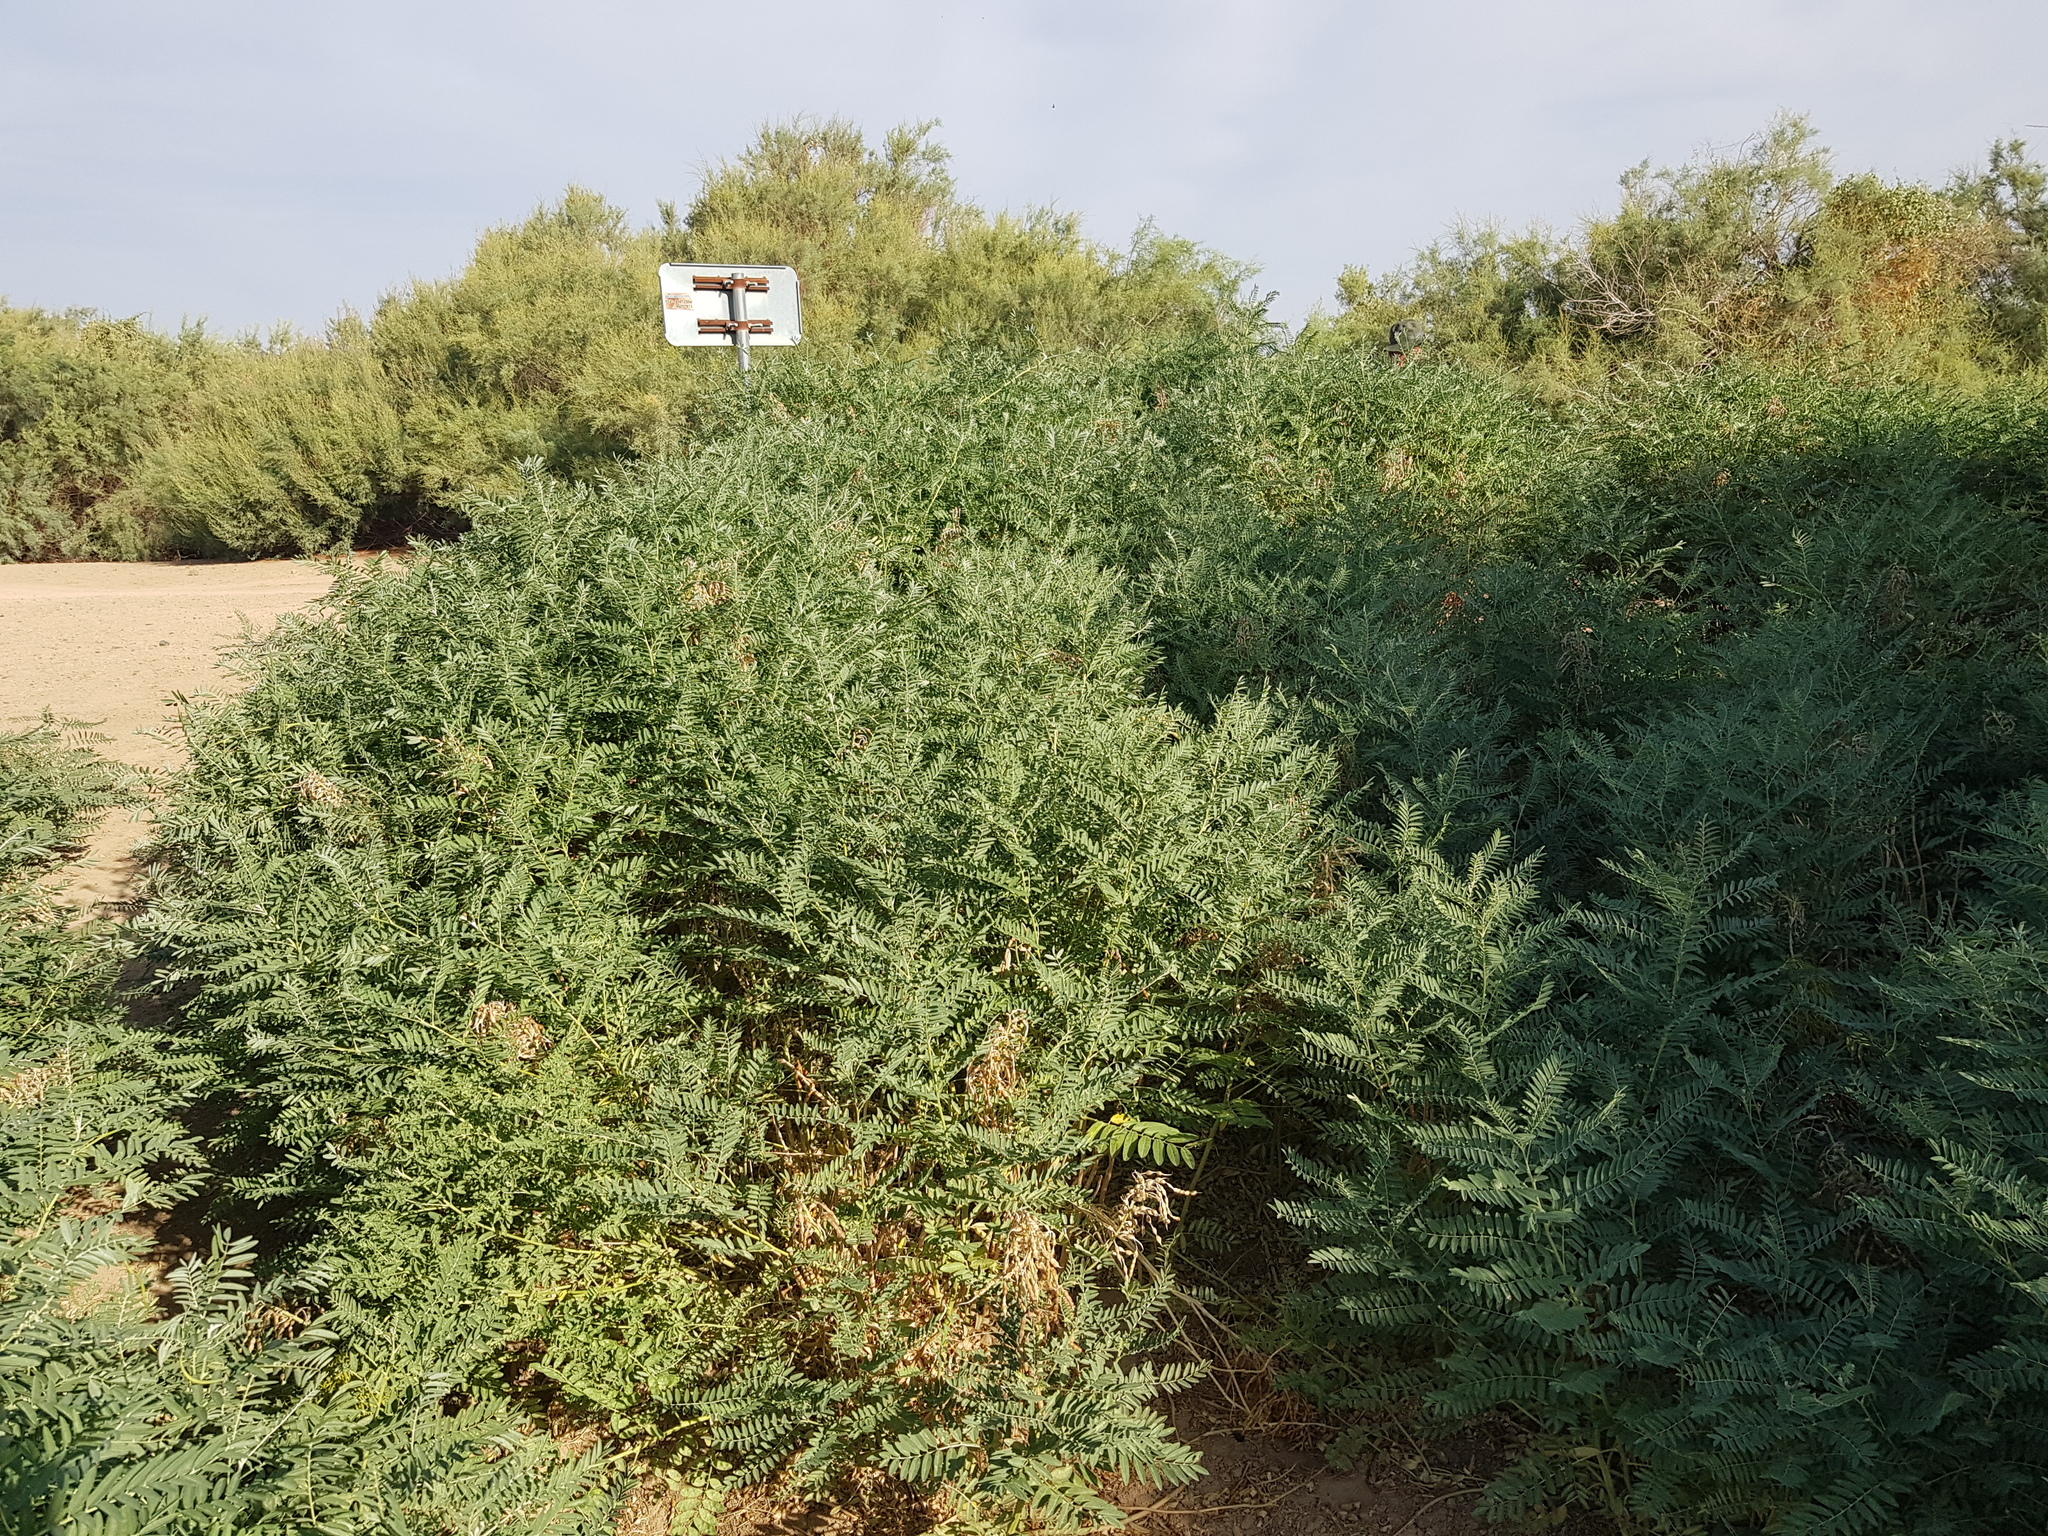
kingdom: Plantae
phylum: Tracheophyta
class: Magnoliopsida
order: Fabales
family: Fabaceae
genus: Sophora
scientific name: Sophora alopecuroides
